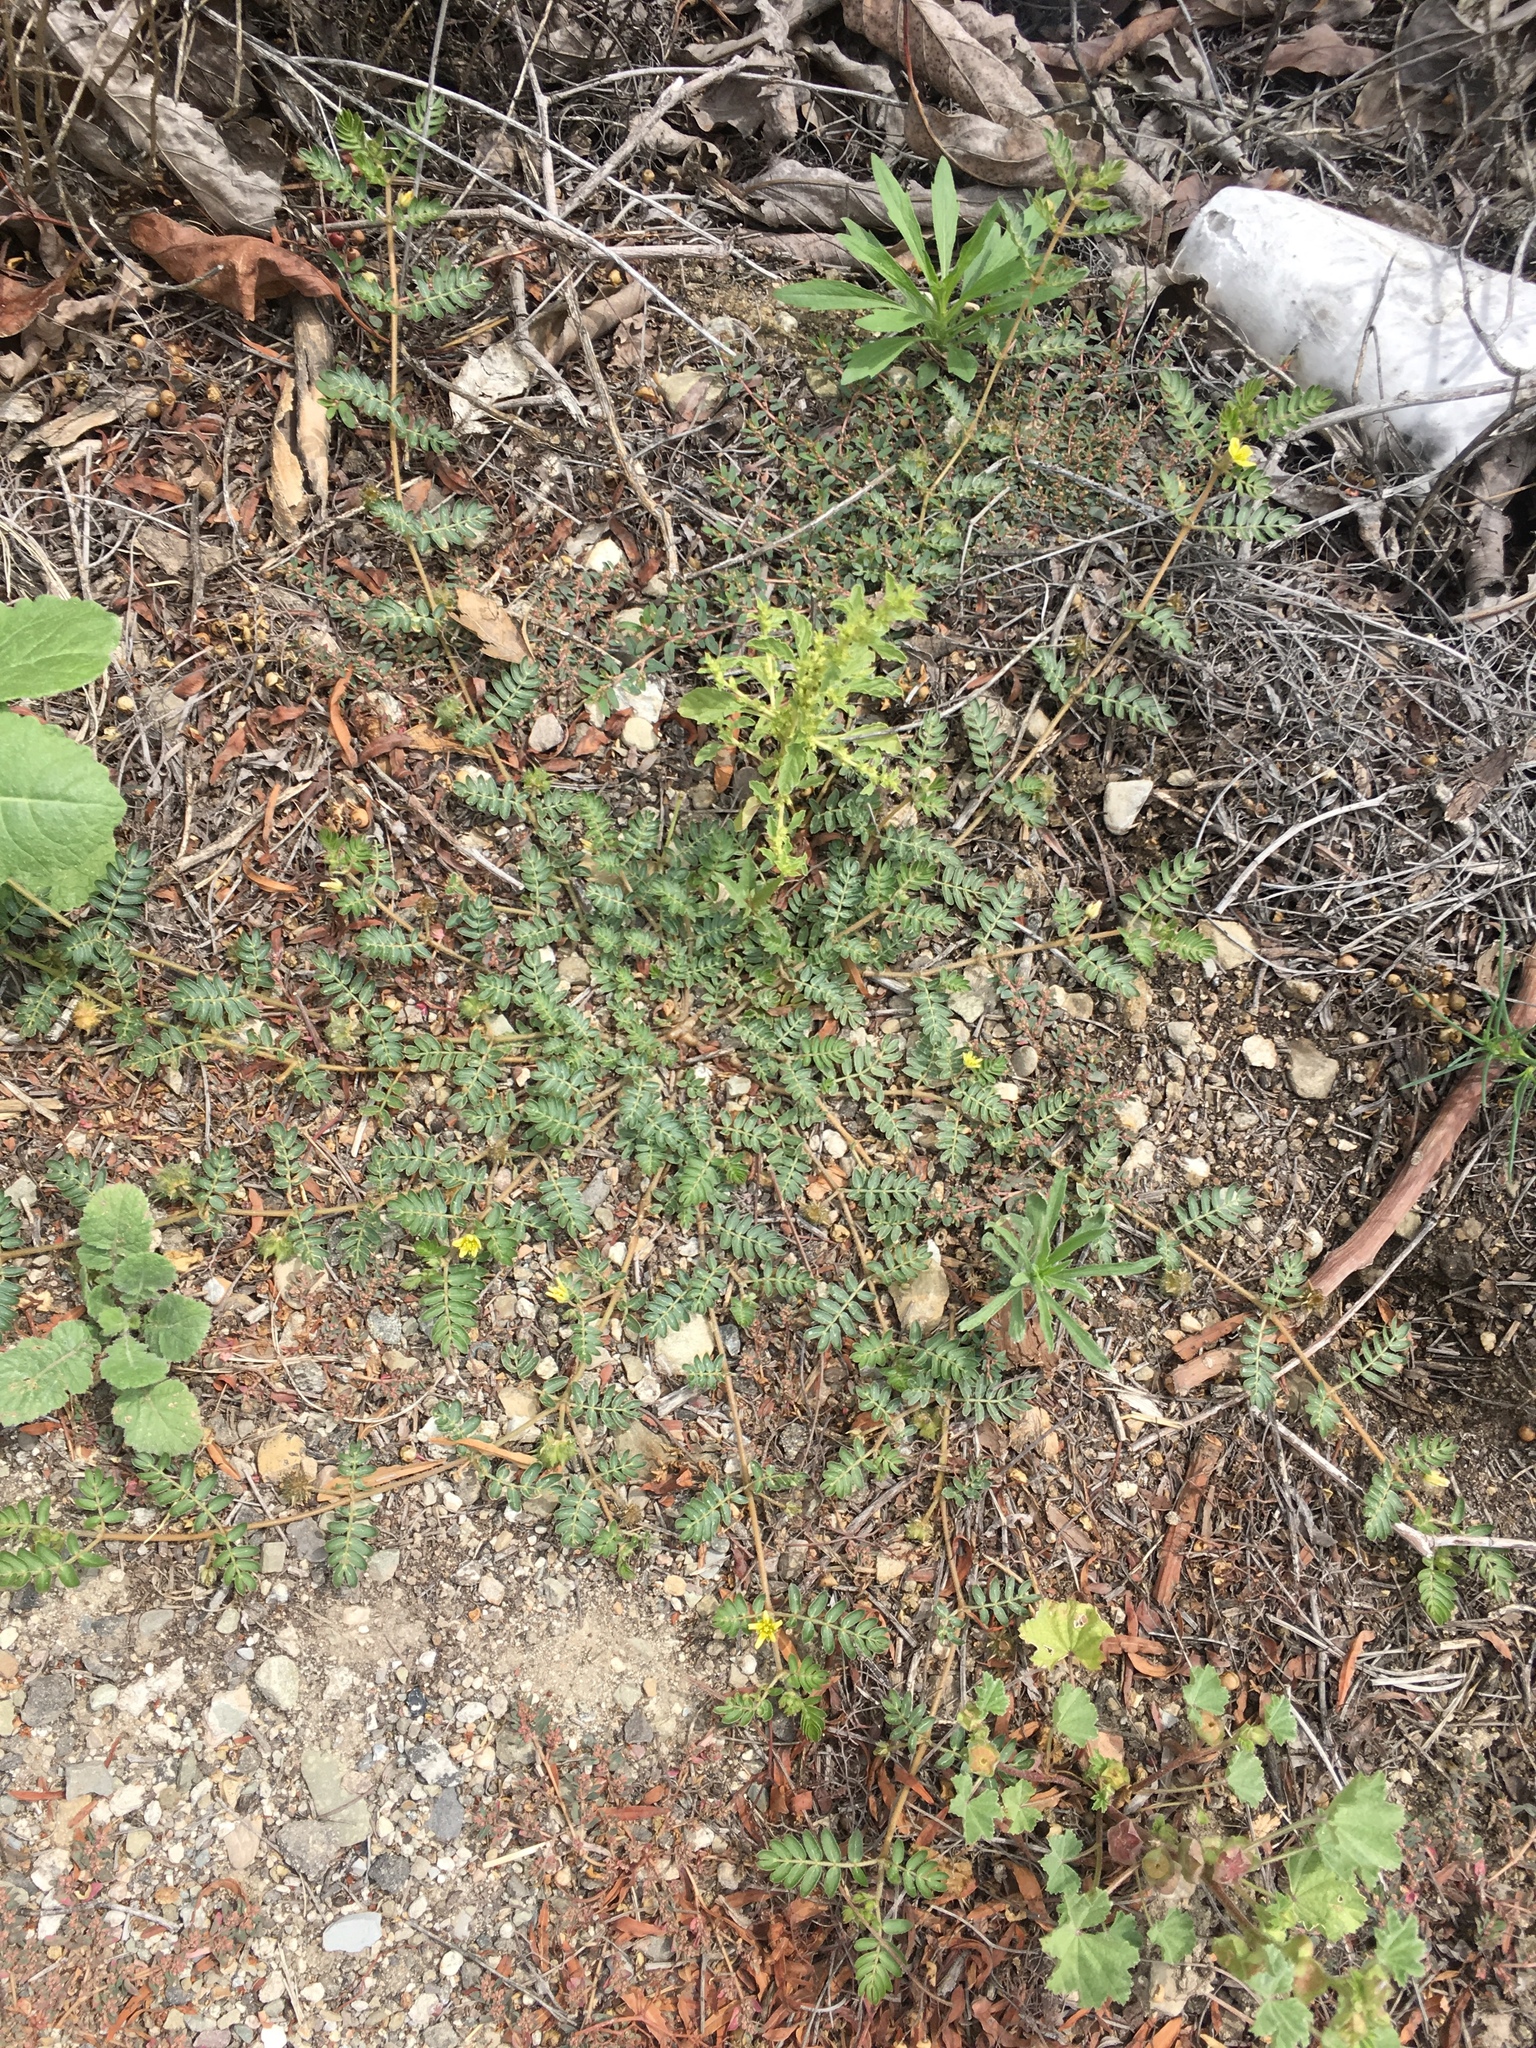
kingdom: Plantae
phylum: Tracheophyta
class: Magnoliopsida
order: Zygophyllales
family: Zygophyllaceae
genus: Tribulus
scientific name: Tribulus terrestris
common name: Puncturevine
